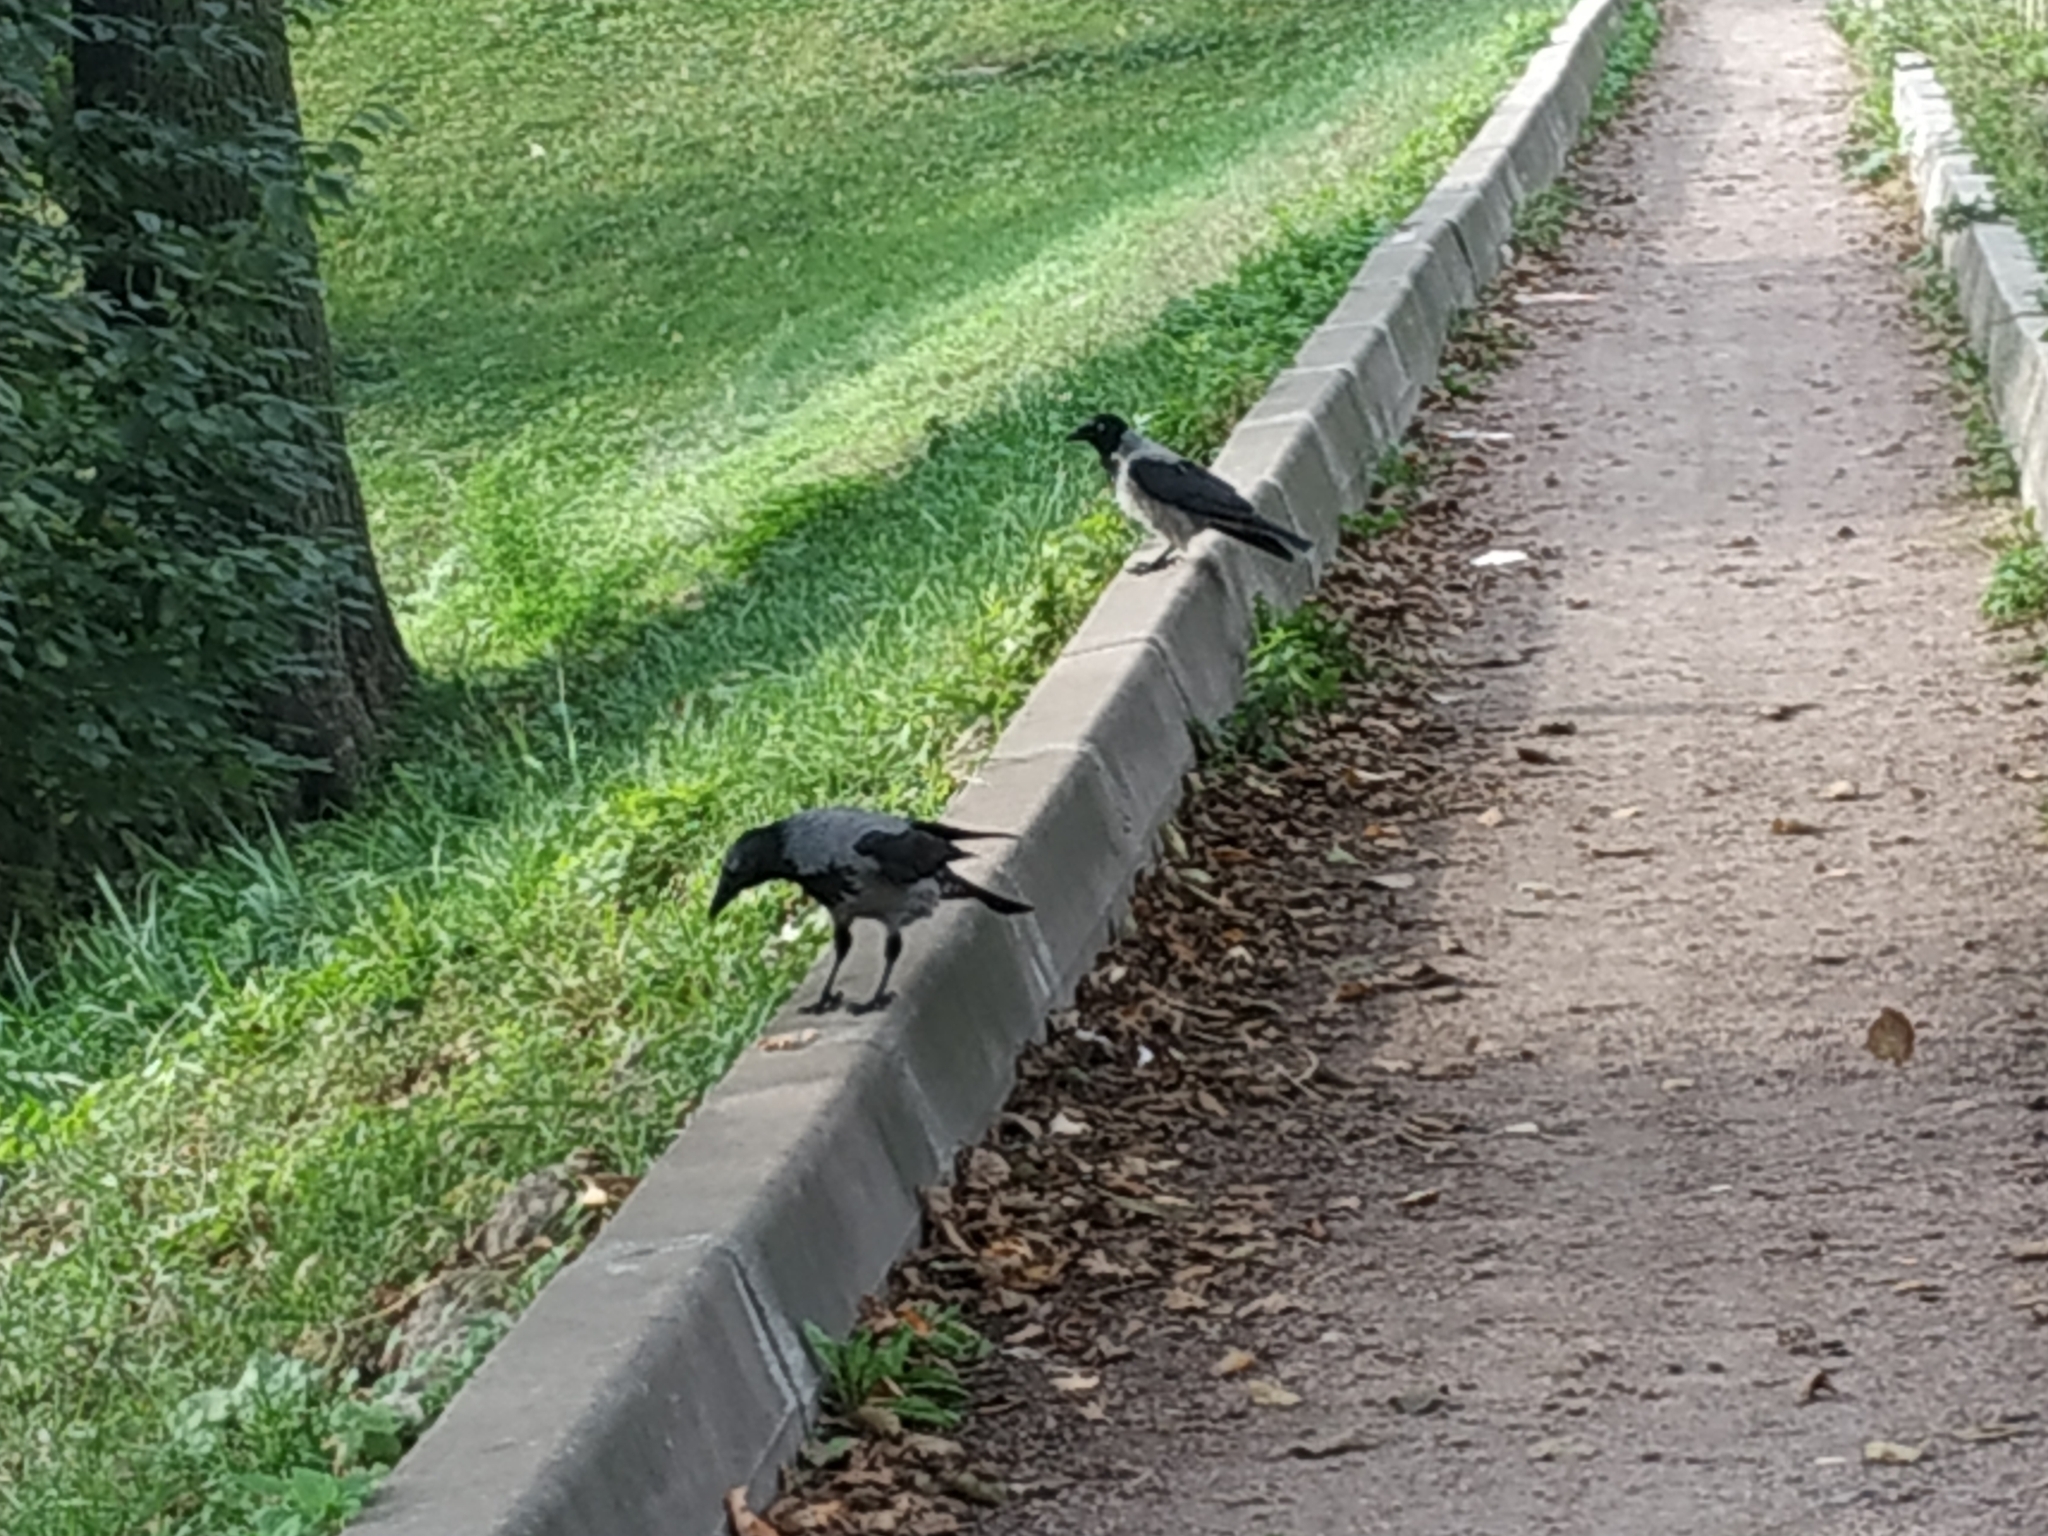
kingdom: Animalia
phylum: Chordata
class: Aves
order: Passeriformes
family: Corvidae
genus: Corvus
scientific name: Corvus cornix
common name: Hooded crow
